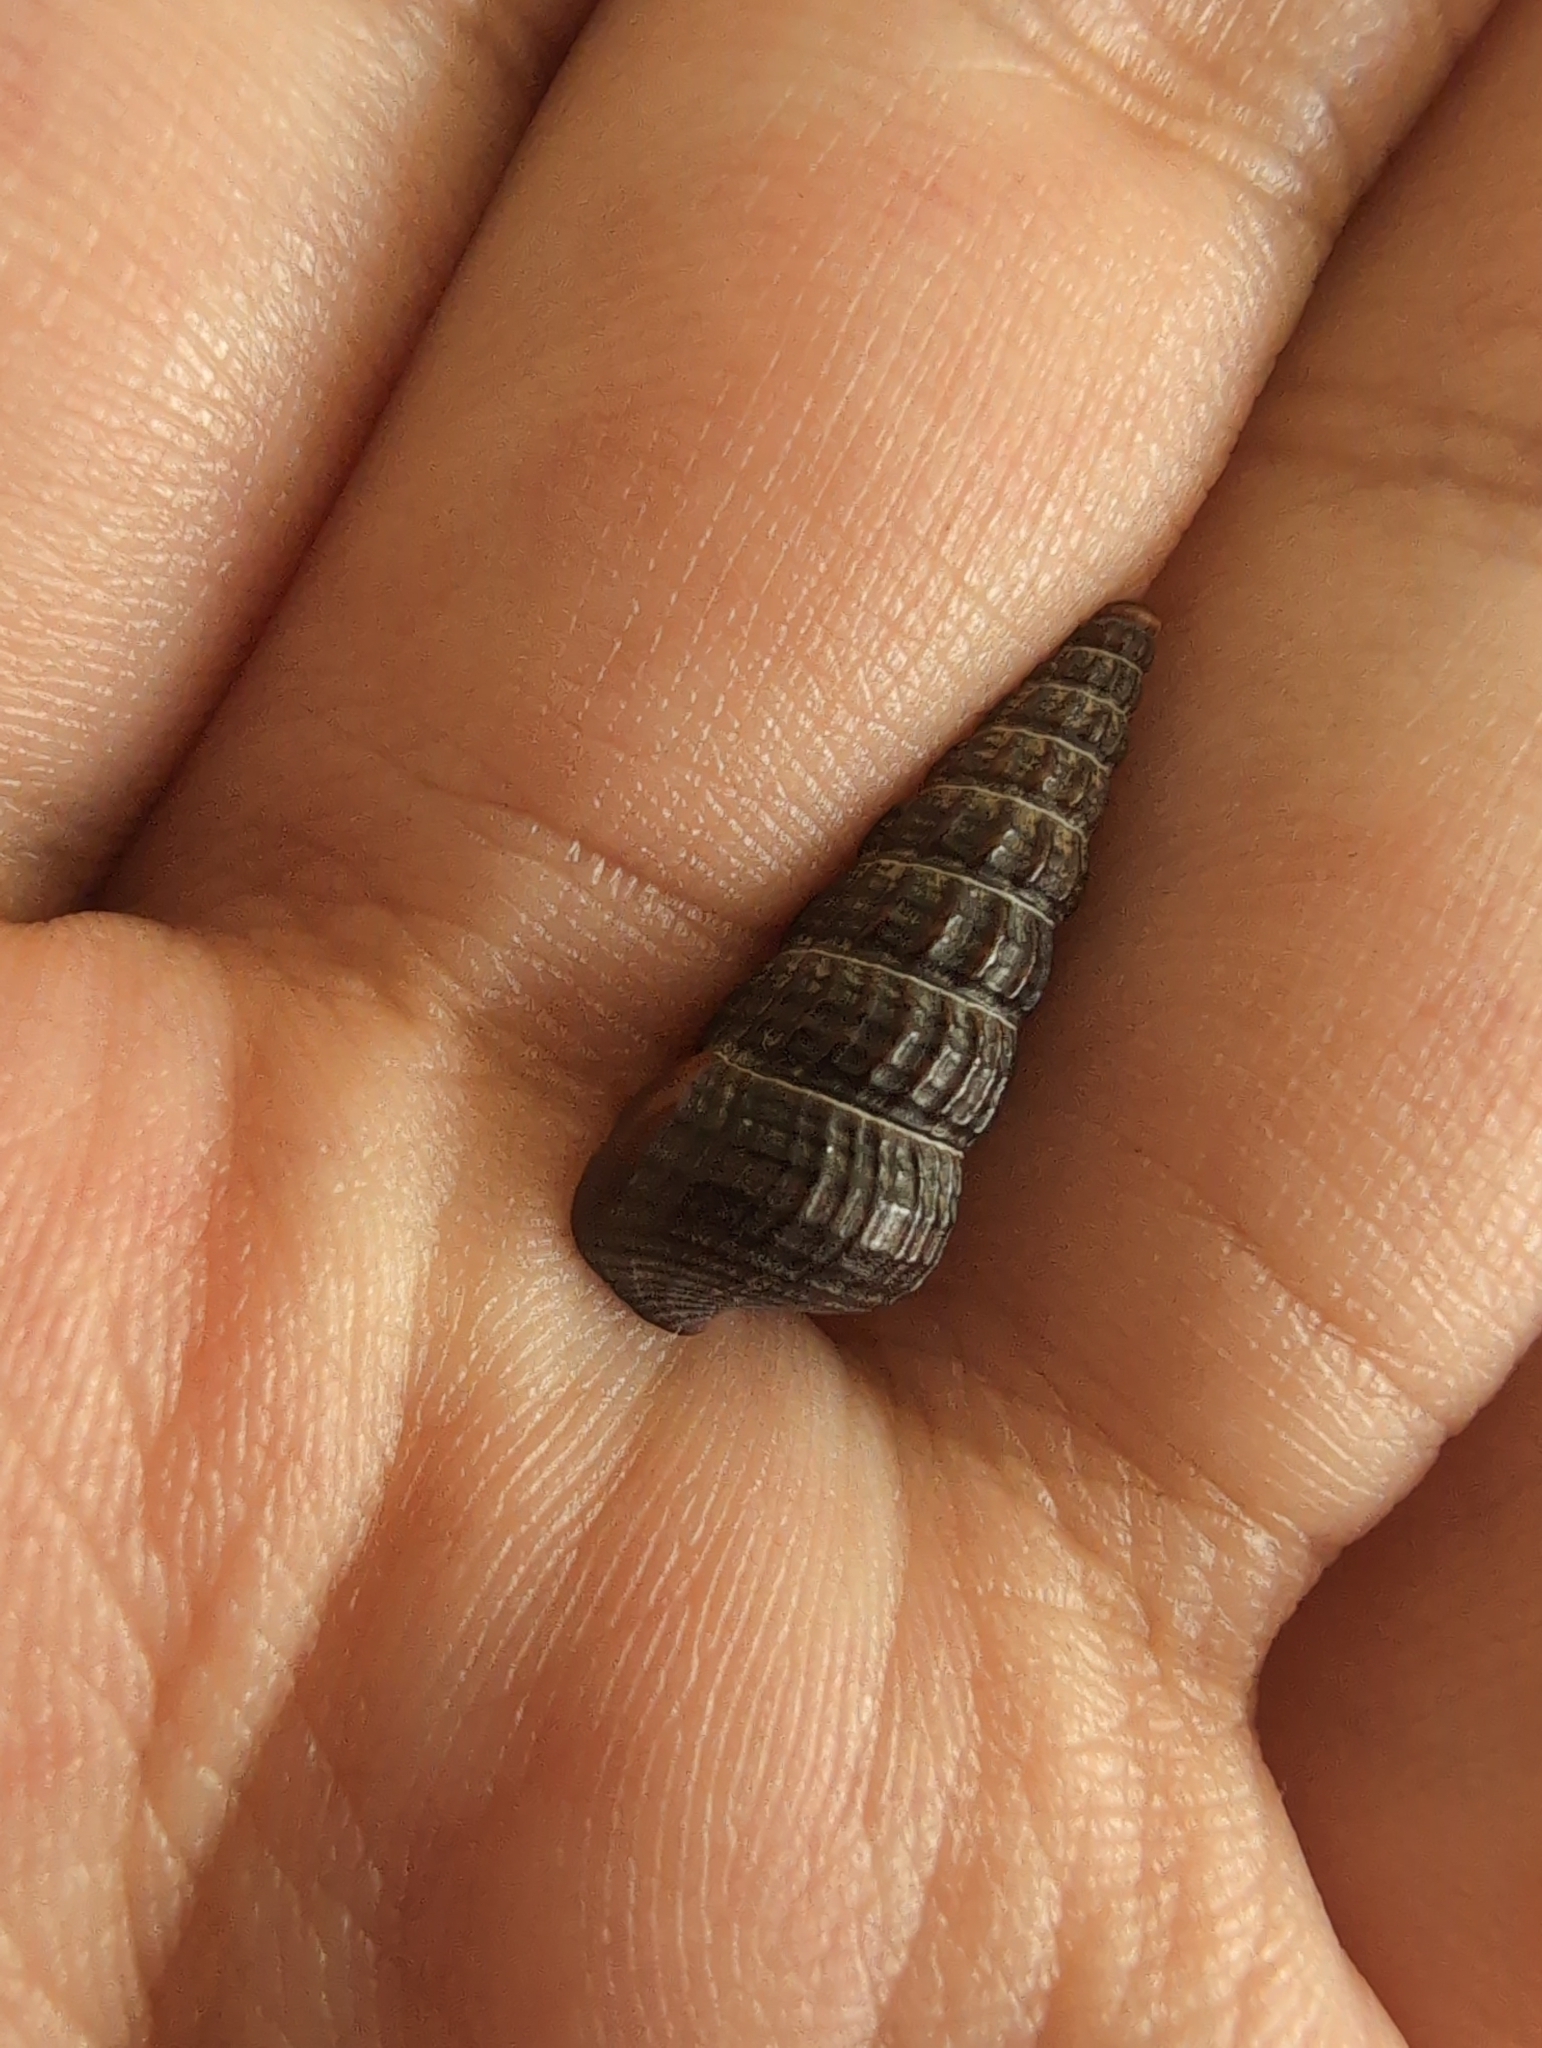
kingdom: Animalia
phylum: Mollusca
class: Gastropoda
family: Potamididae
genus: Cerithideopsis
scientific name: Cerithideopsis californica
